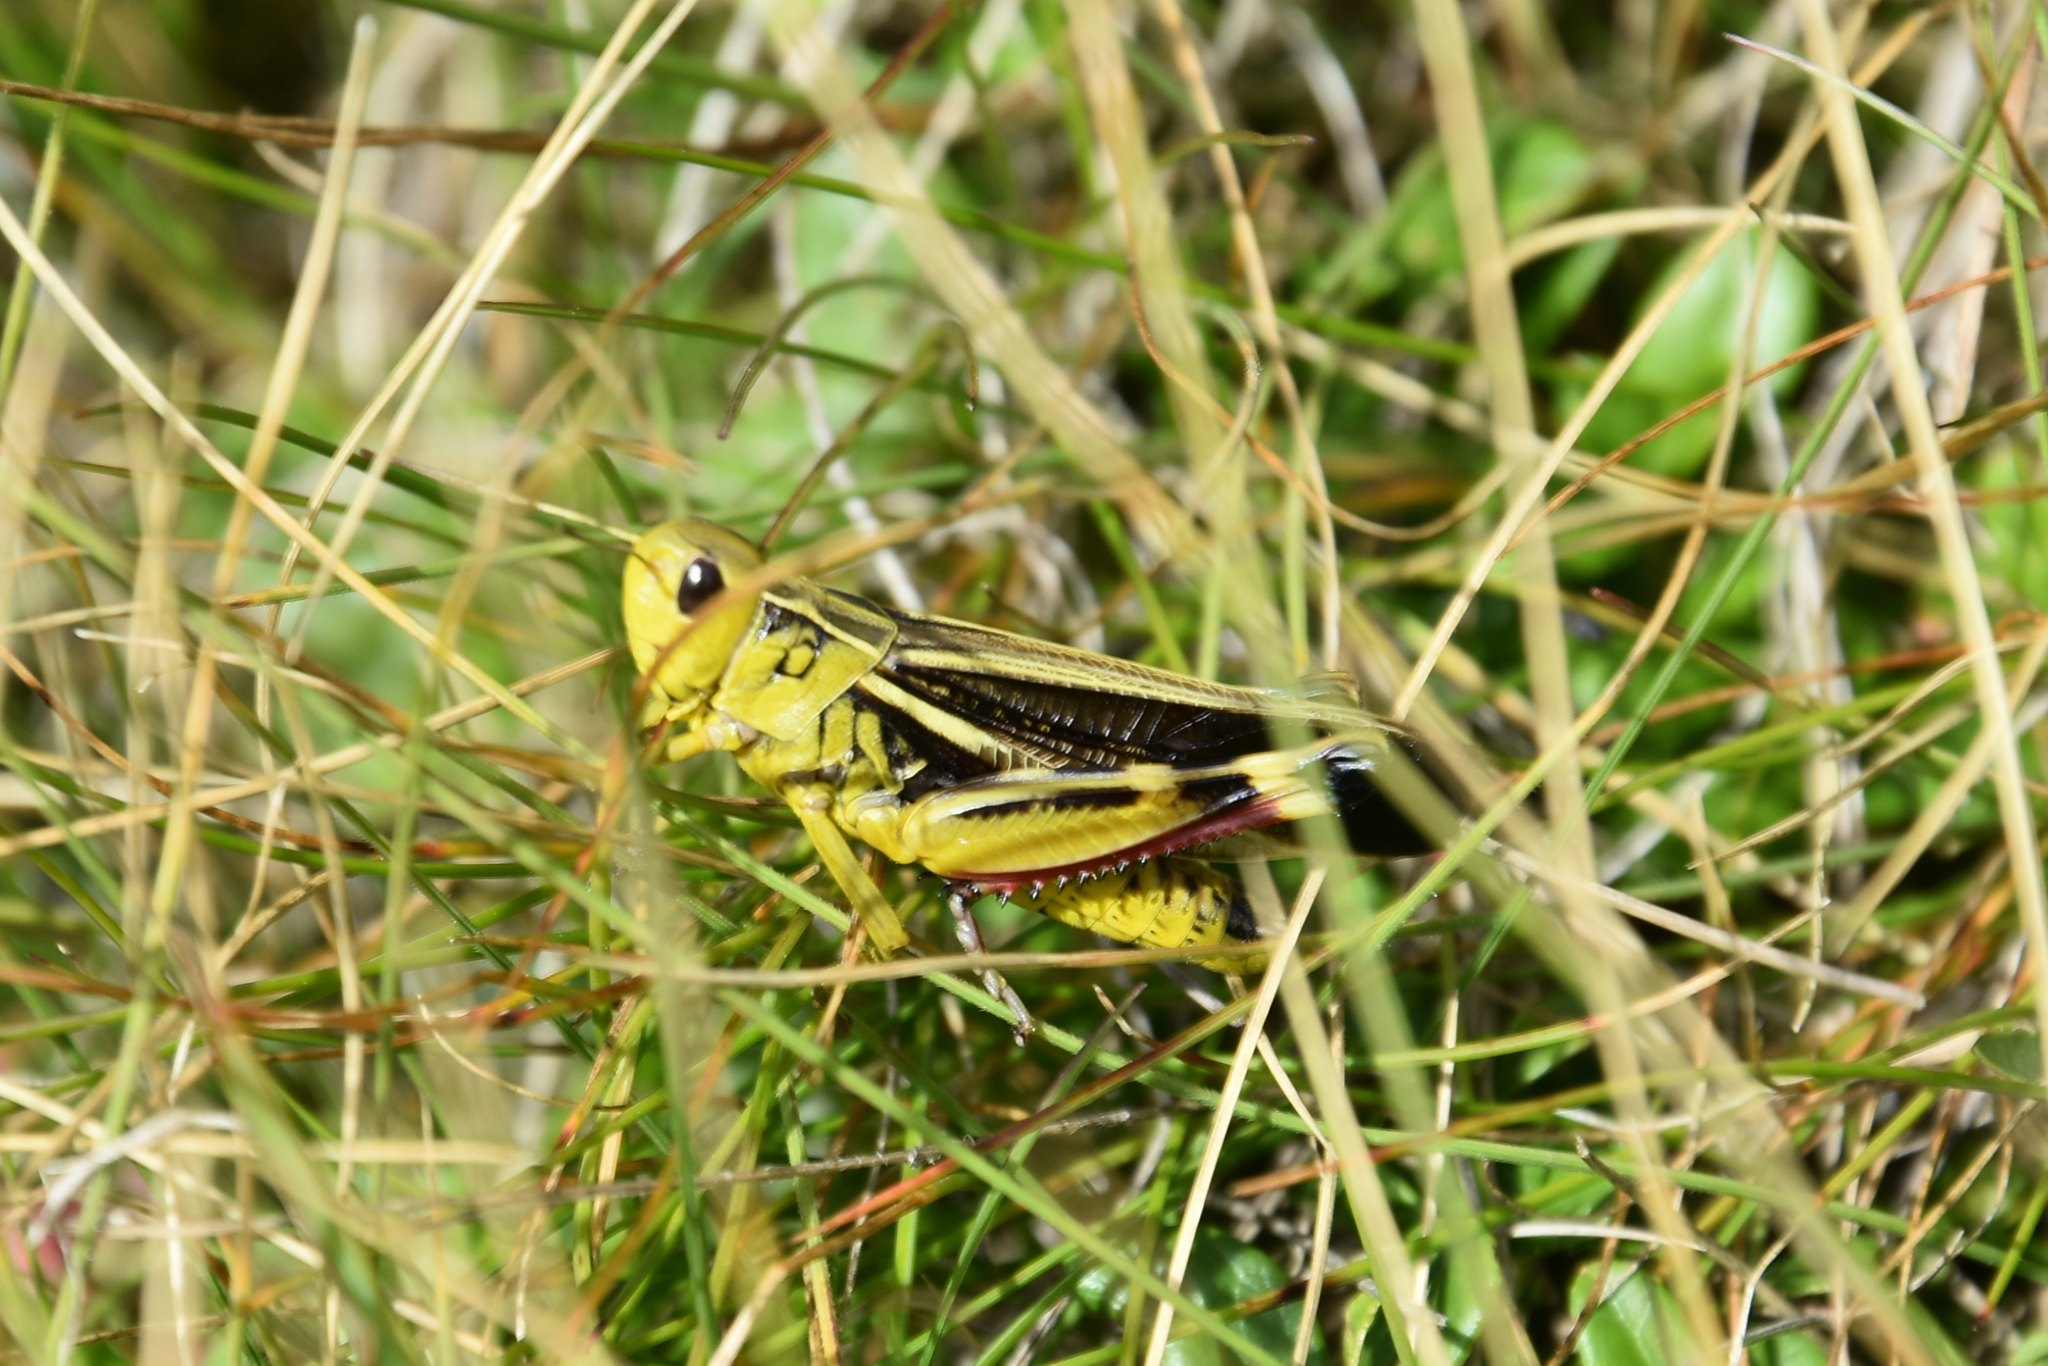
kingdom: Animalia
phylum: Arthropoda
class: Insecta
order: Orthoptera
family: Acrididae
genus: Arcyptera
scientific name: Arcyptera fusca
